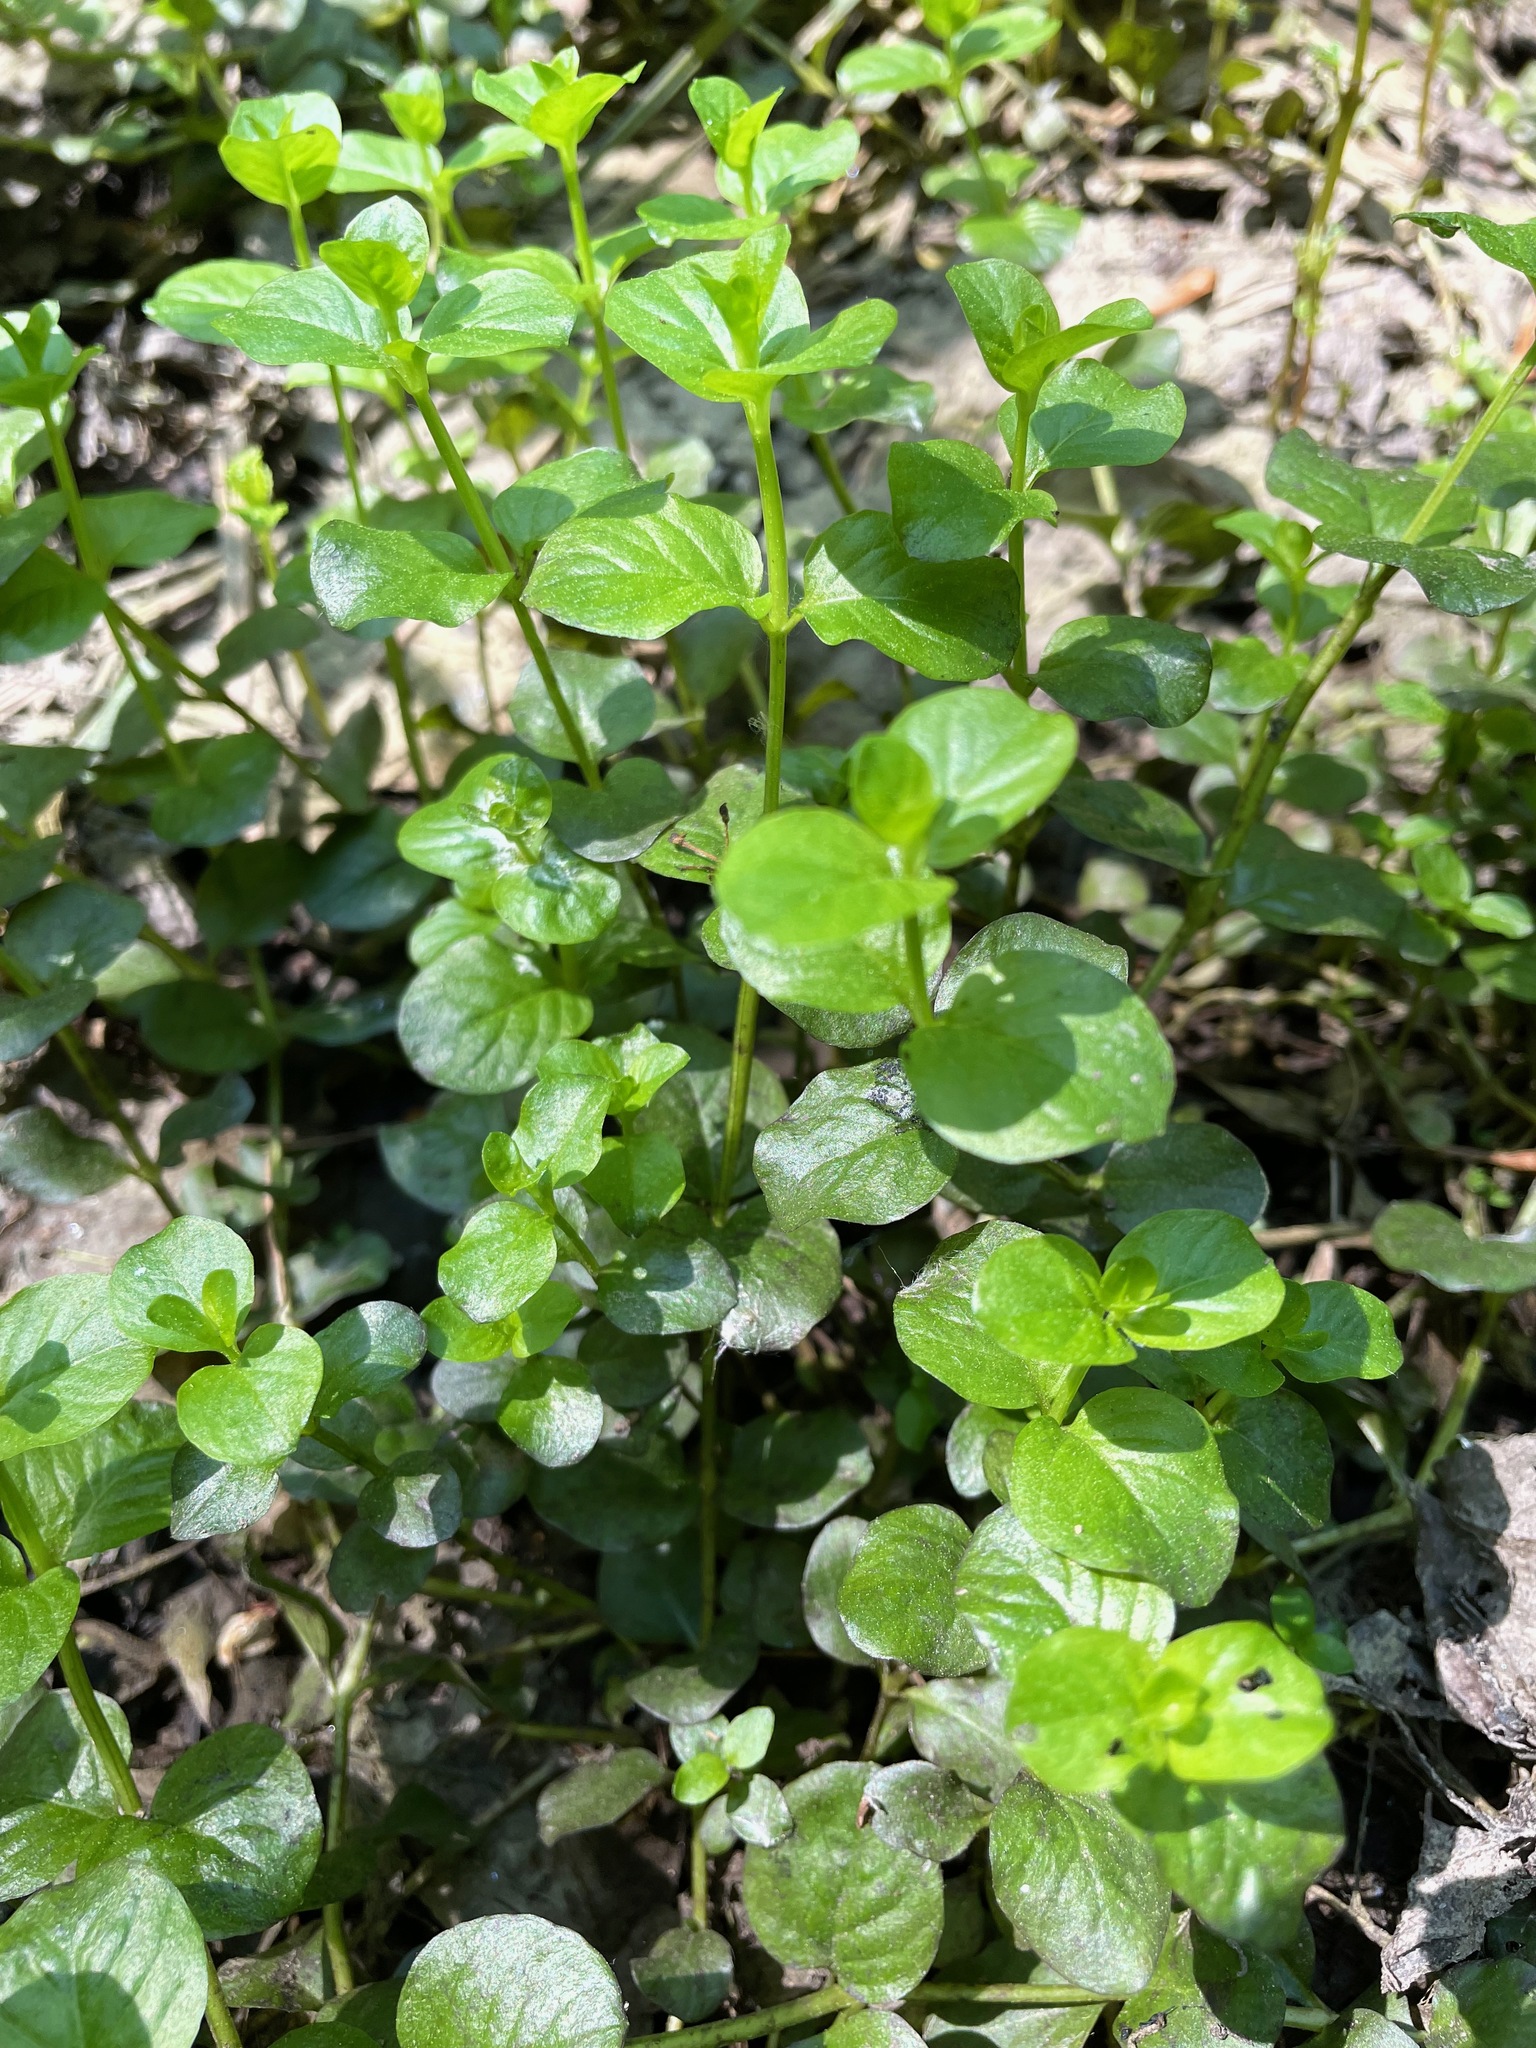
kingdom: Plantae
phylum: Tracheophyta
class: Magnoliopsida
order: Ericales
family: Primulaceae
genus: Lysimachia
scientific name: Lysimachia nummularia
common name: Moneywort
